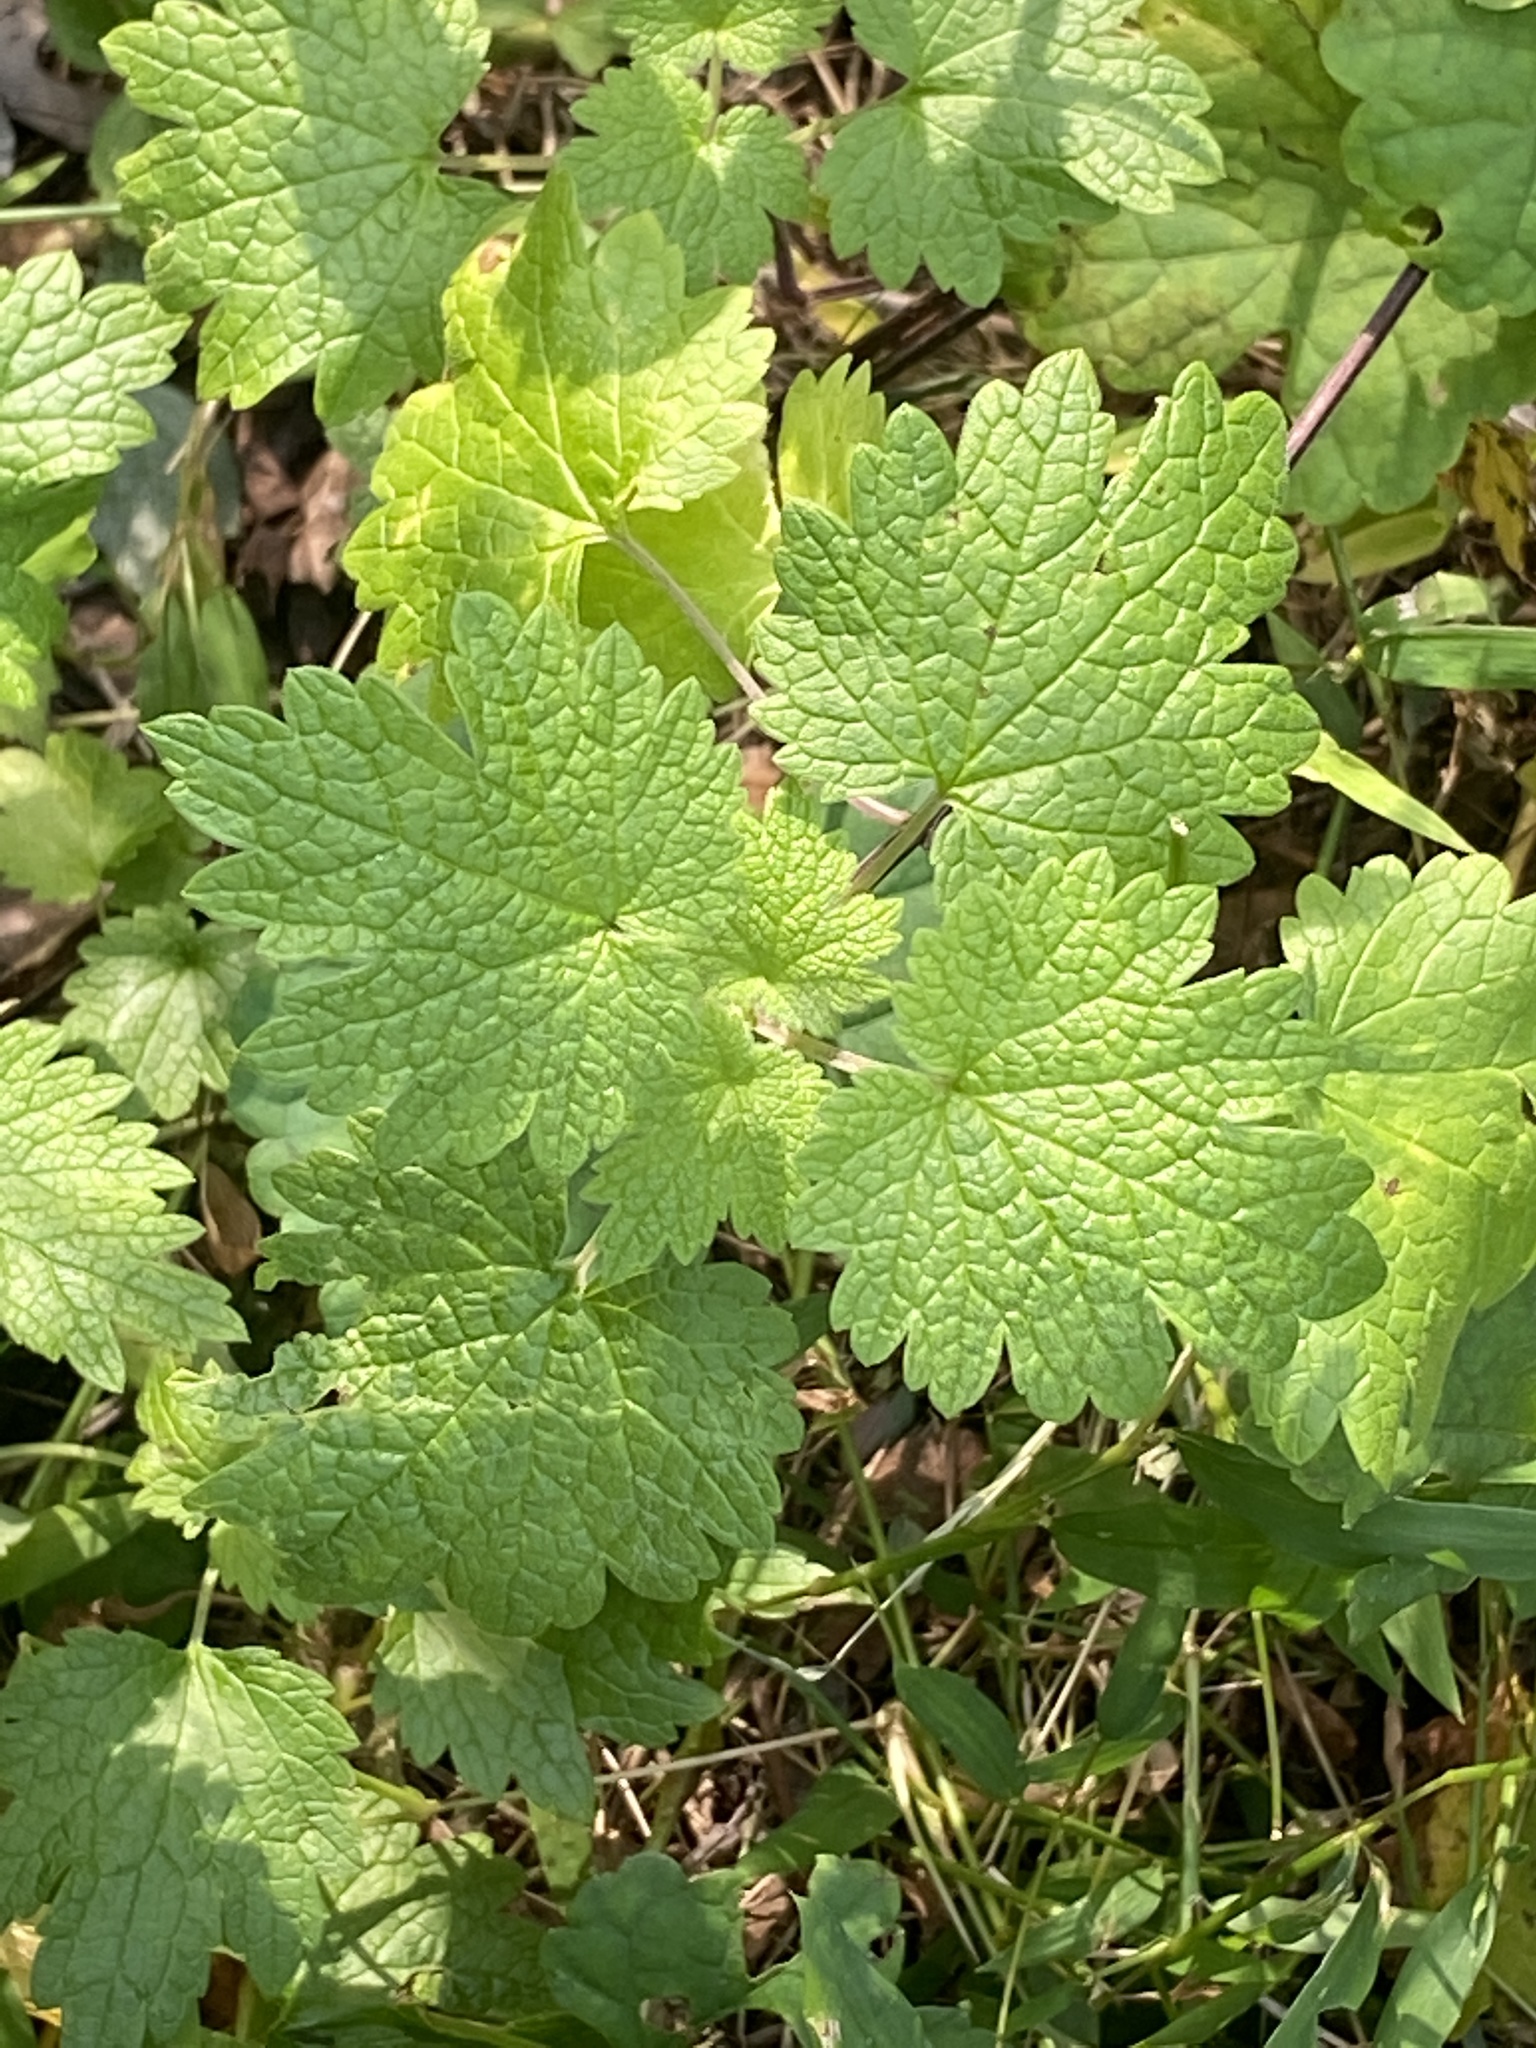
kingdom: Plantae
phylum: Tracheophyta
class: Magnoliopsida
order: Lamiales
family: Lamiaceae
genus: Leonurus
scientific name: Leonurus cardiaca
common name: Motherwort
